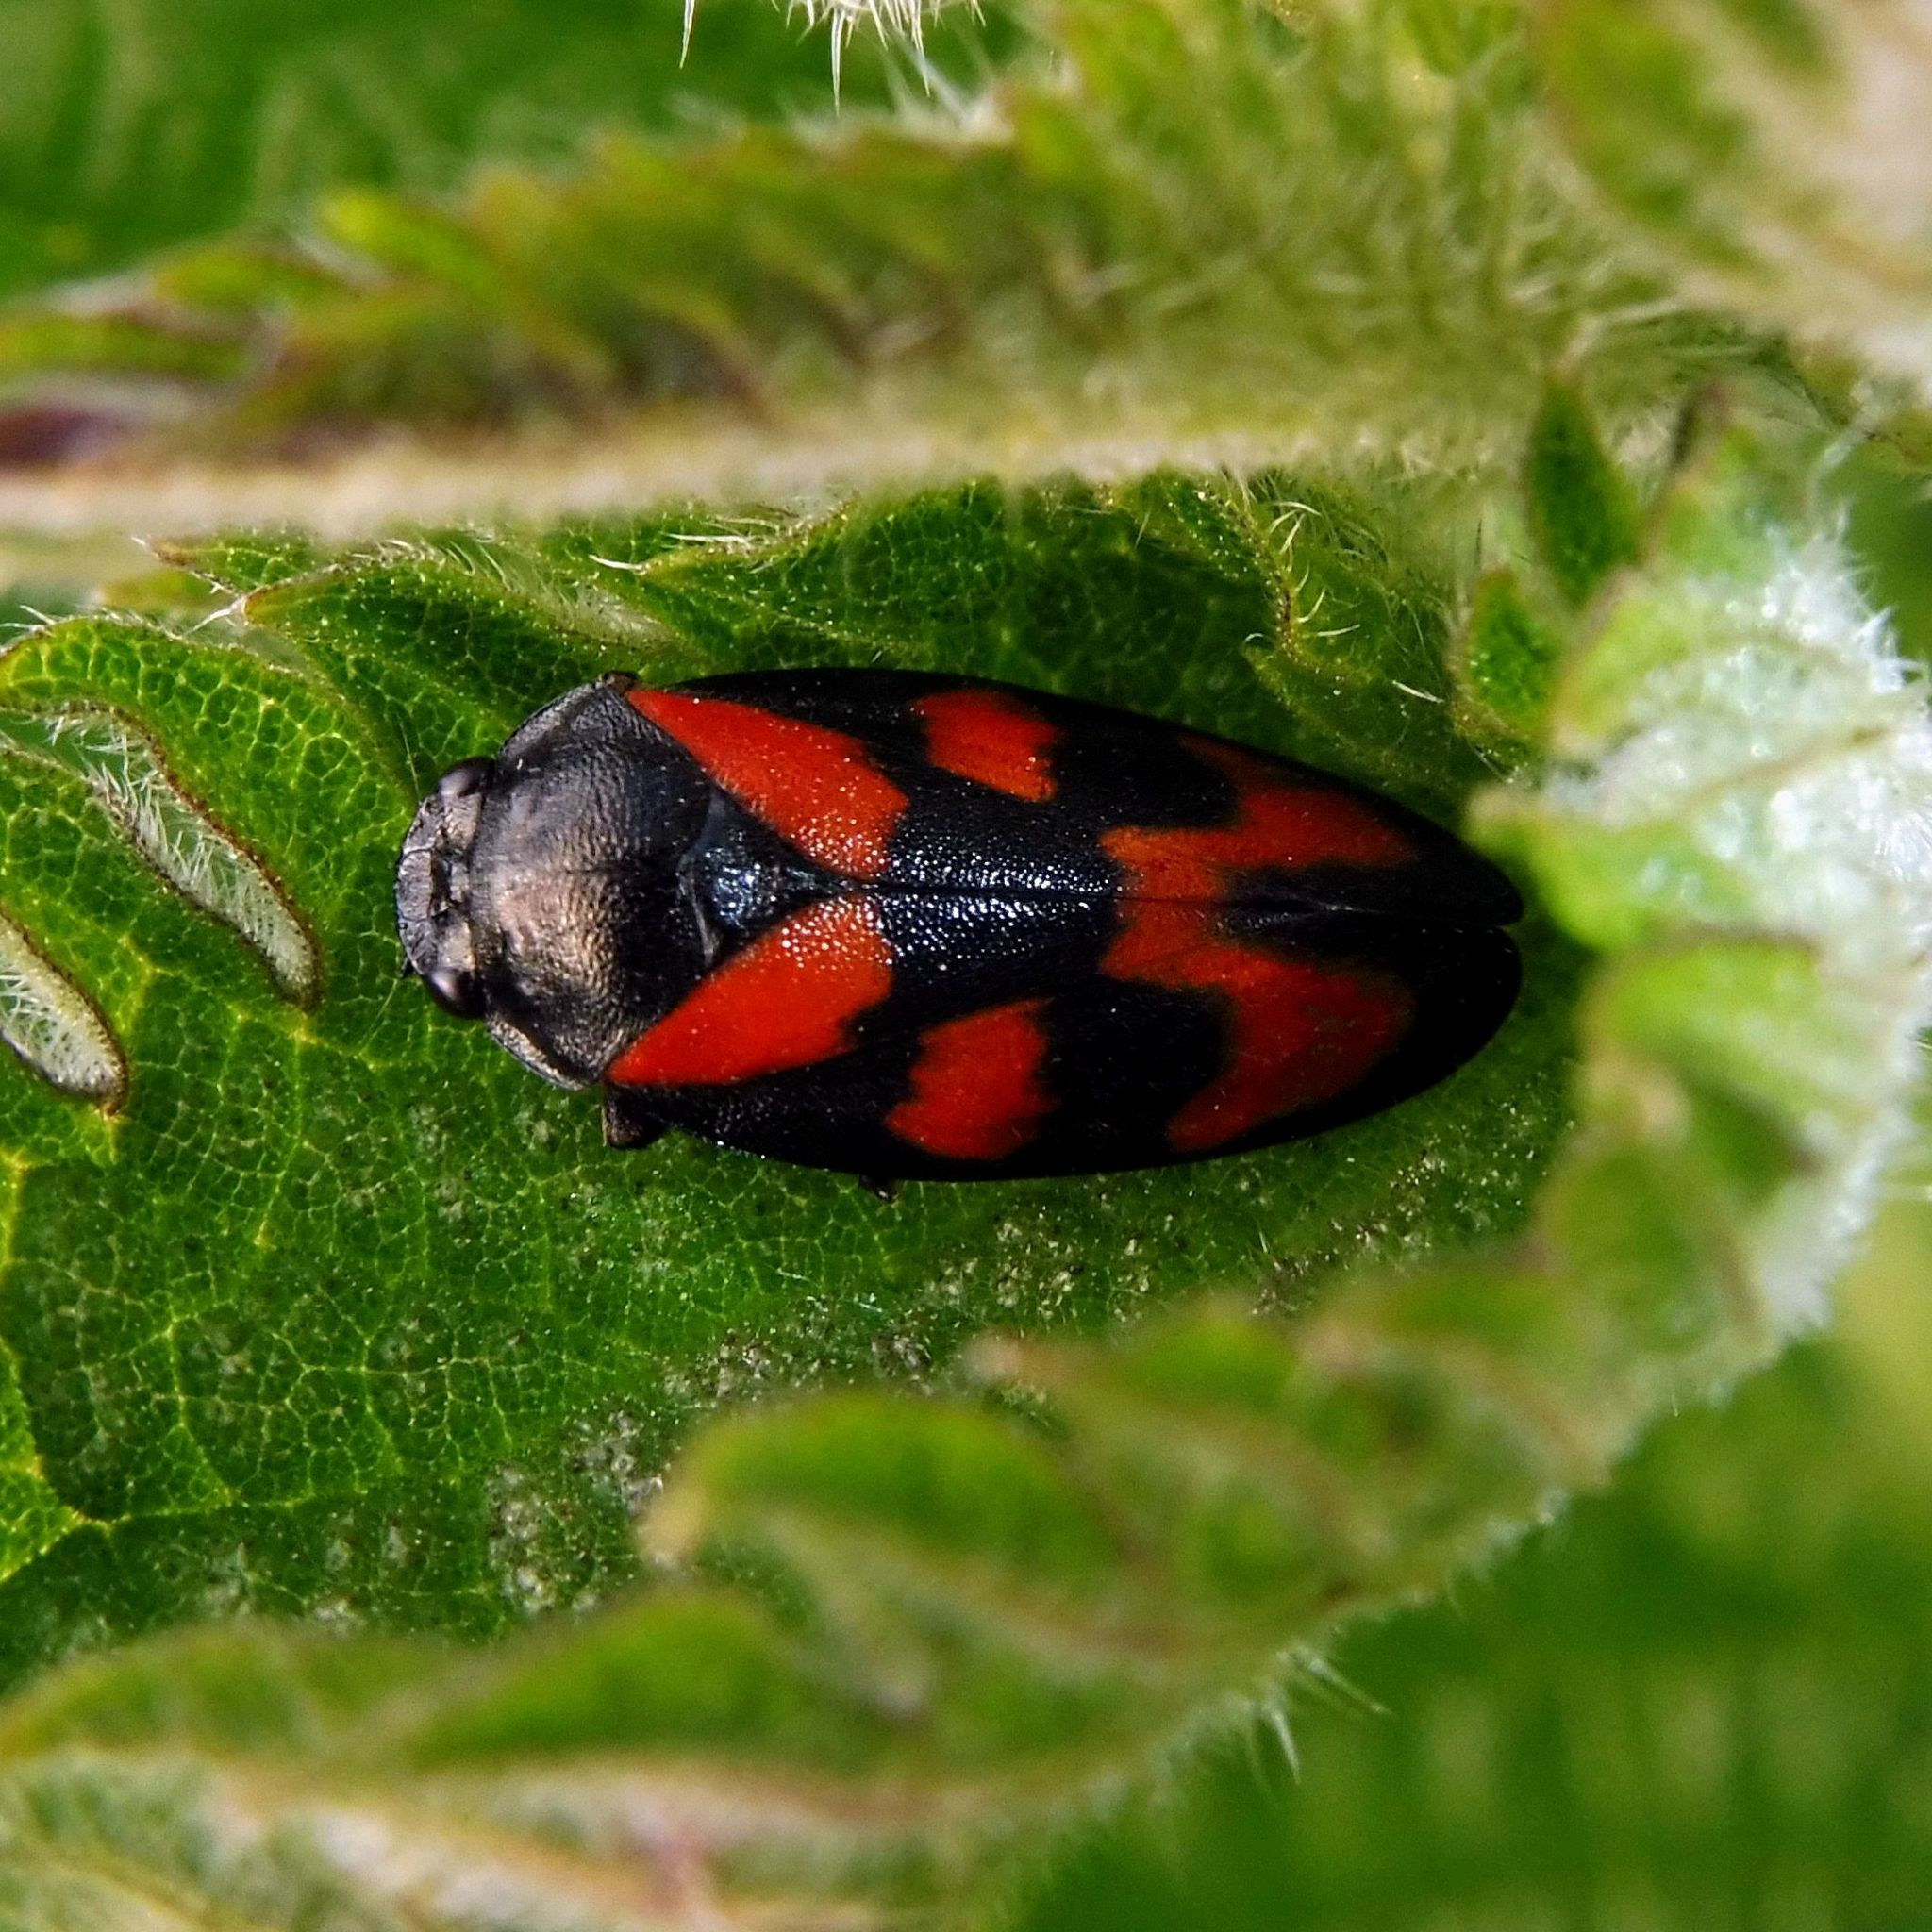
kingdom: Animalia
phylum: Arthropoda
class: Insecta
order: Hemiptera
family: Cercopidae
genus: Cercopis
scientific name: Cercopis vulnerata
